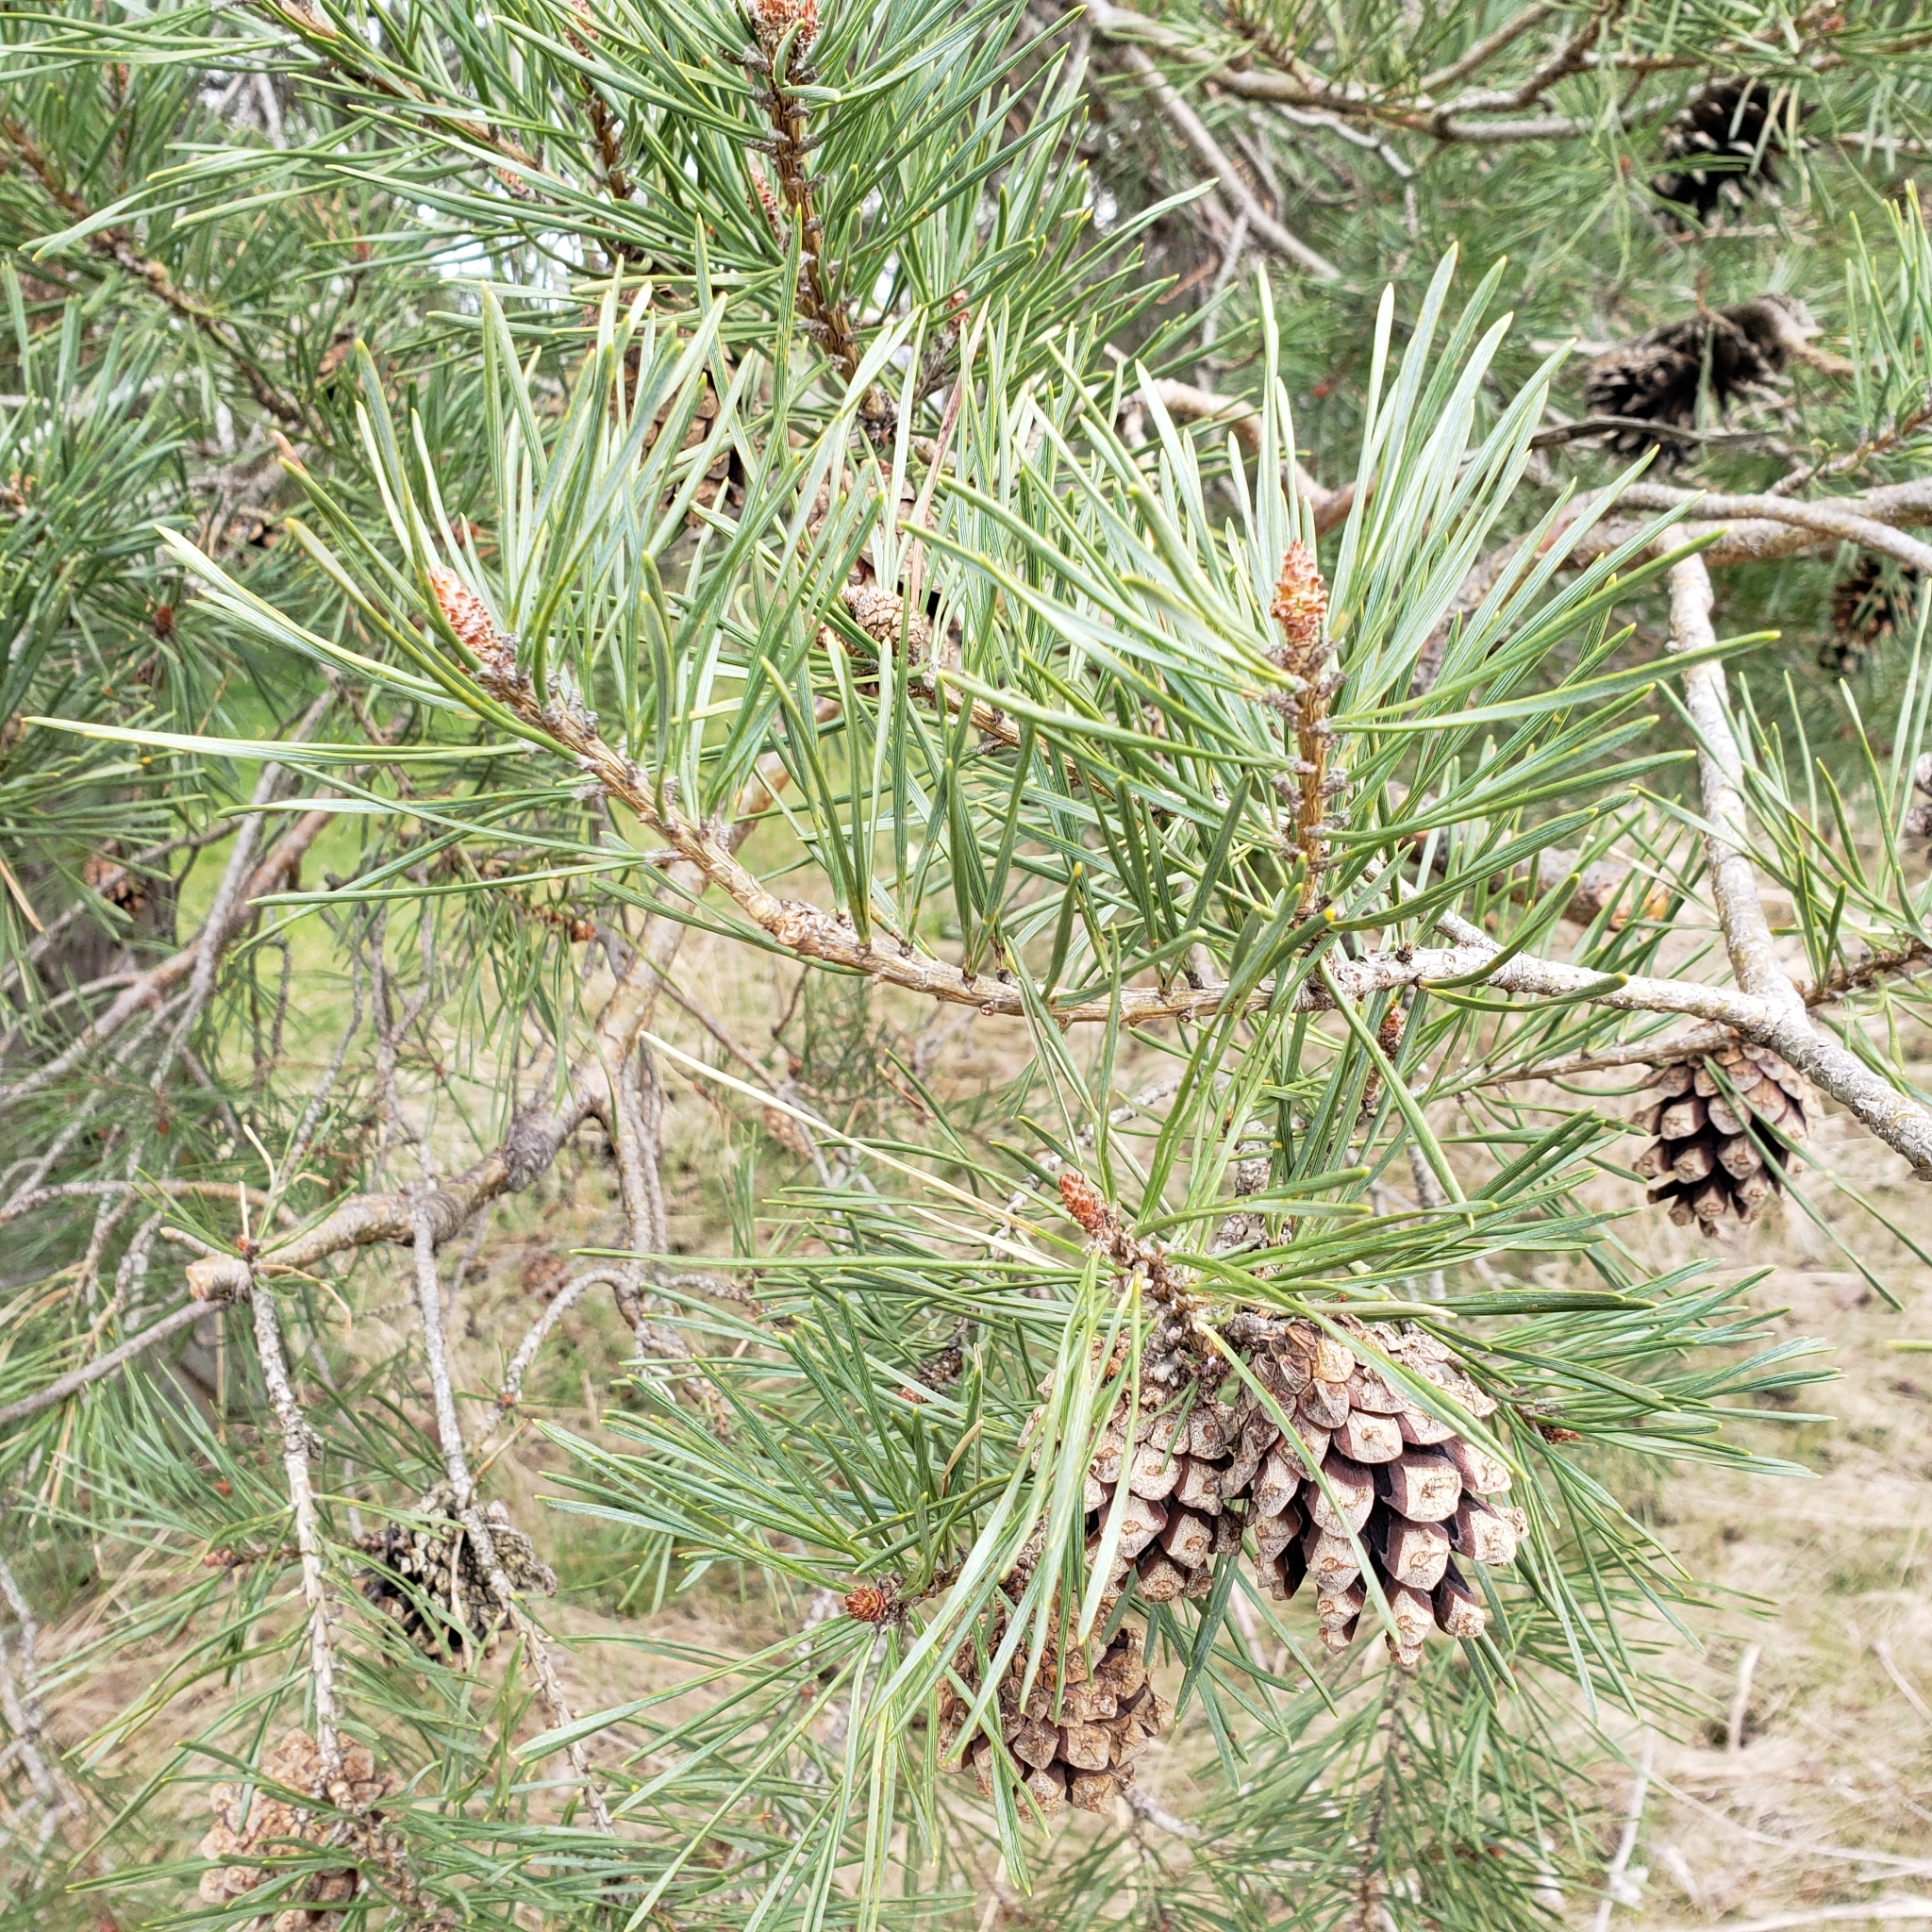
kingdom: Plantae
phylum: Tracheophyta
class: Pinopsida
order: Pinales
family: Pinaceae
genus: Pinus
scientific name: Pinus sylvestris
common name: Scots pine
